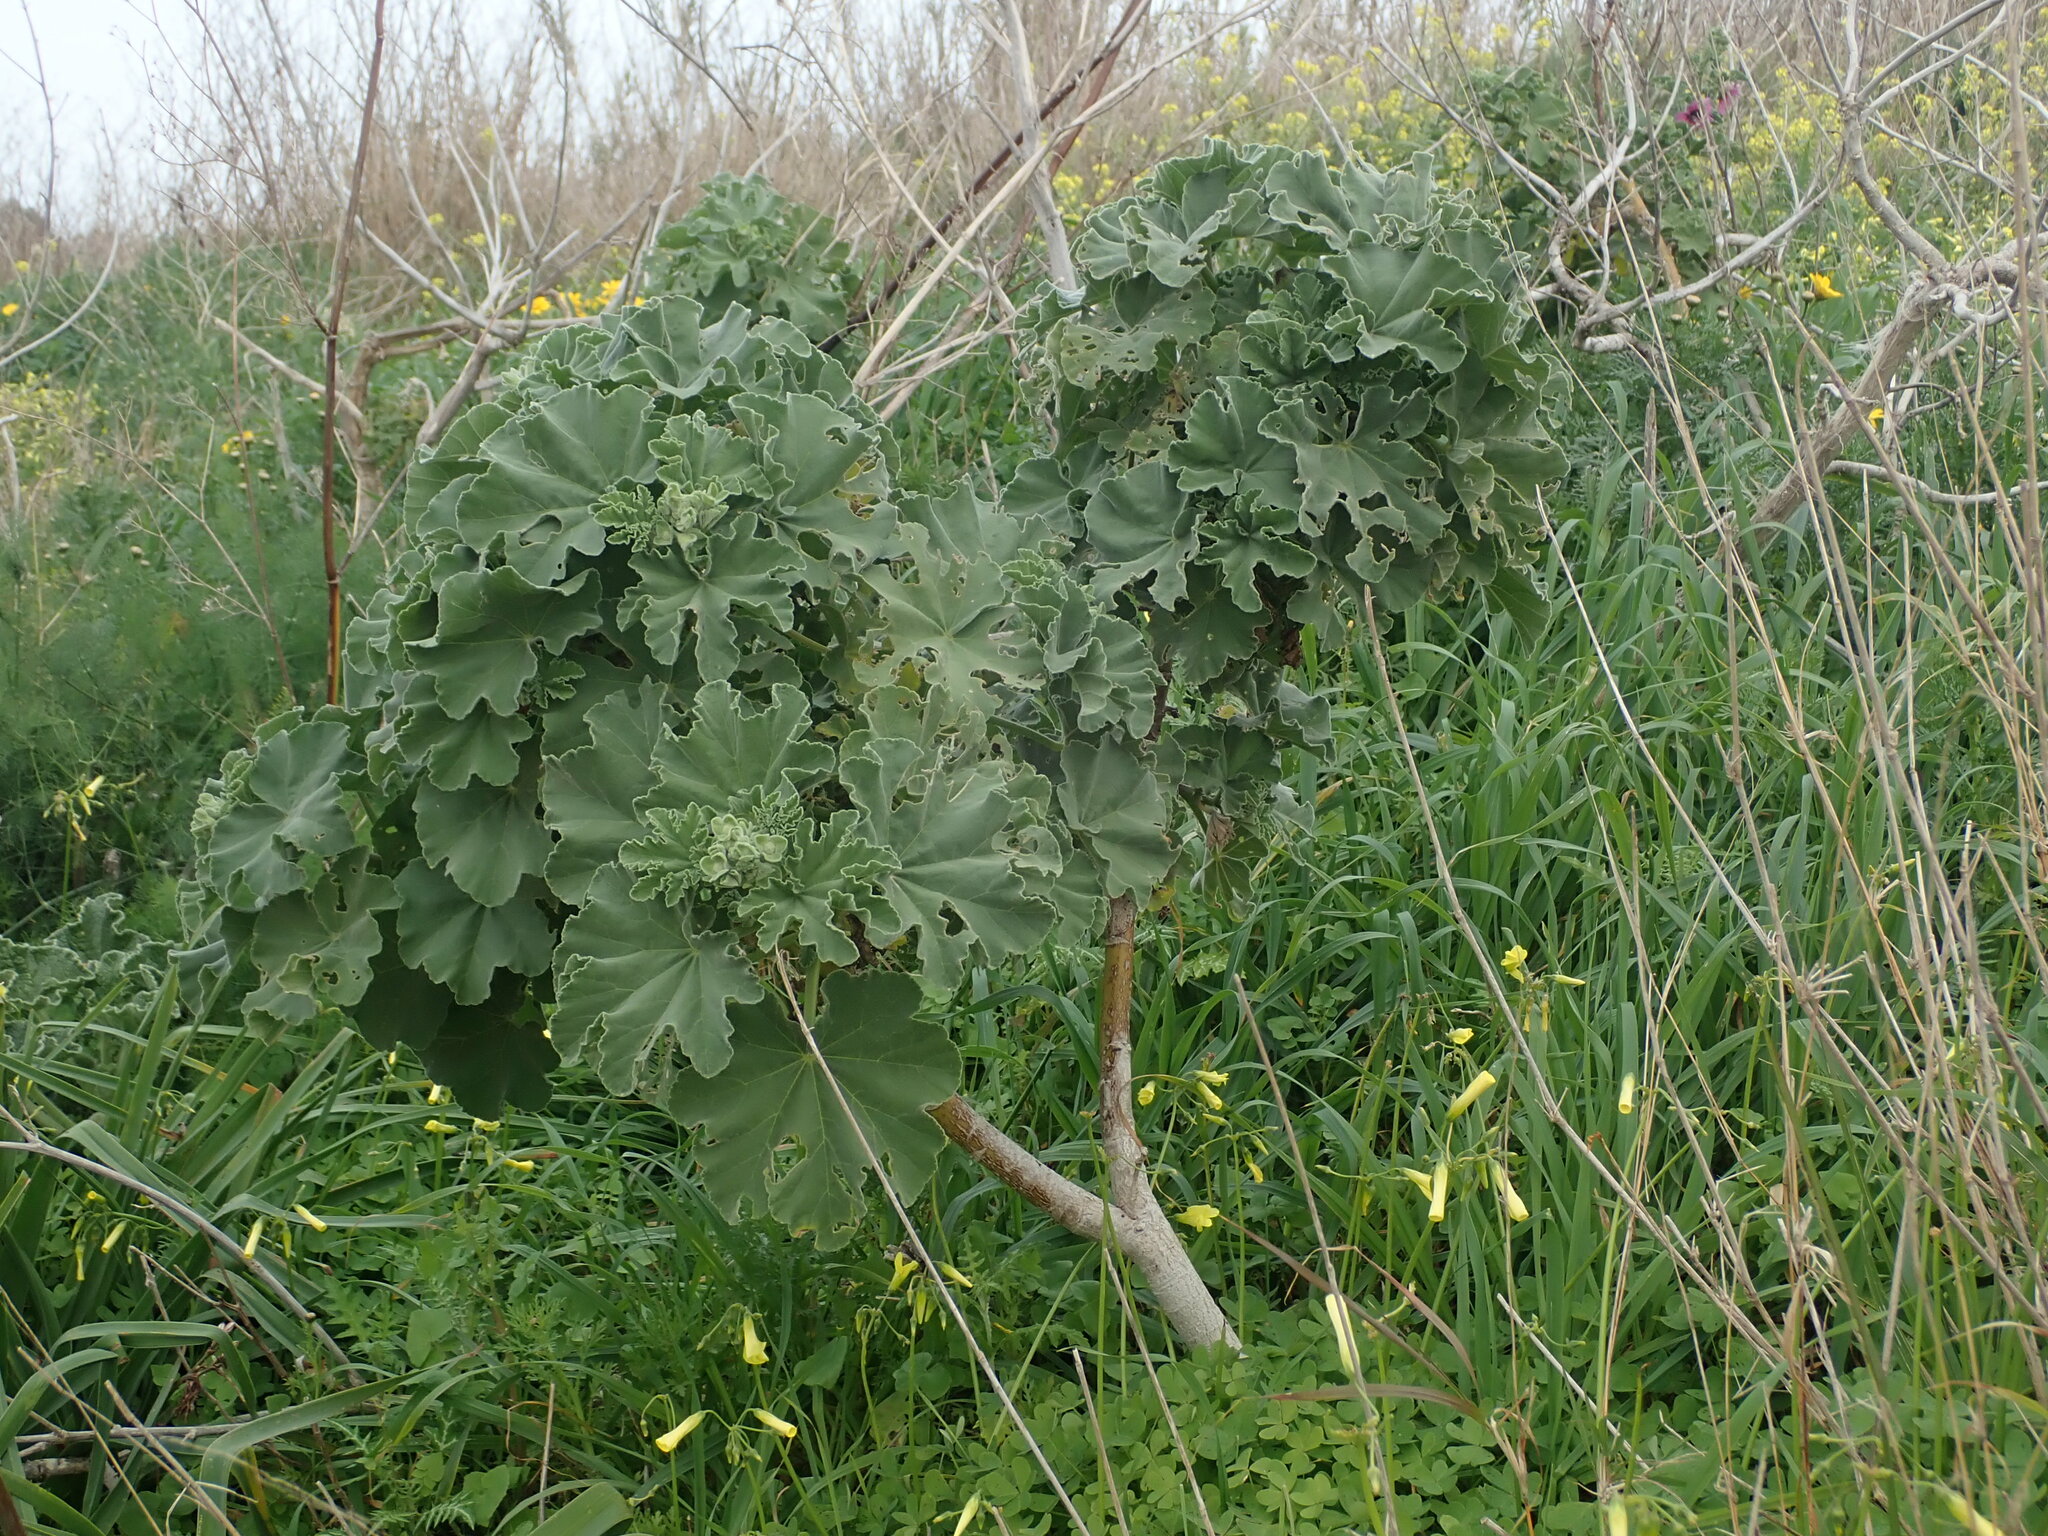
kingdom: Plantae
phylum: Tracheophyta
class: Magnoliopsida
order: Malvales
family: Malvaceae
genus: Malva
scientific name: Malva arborea
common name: Tree mallow
